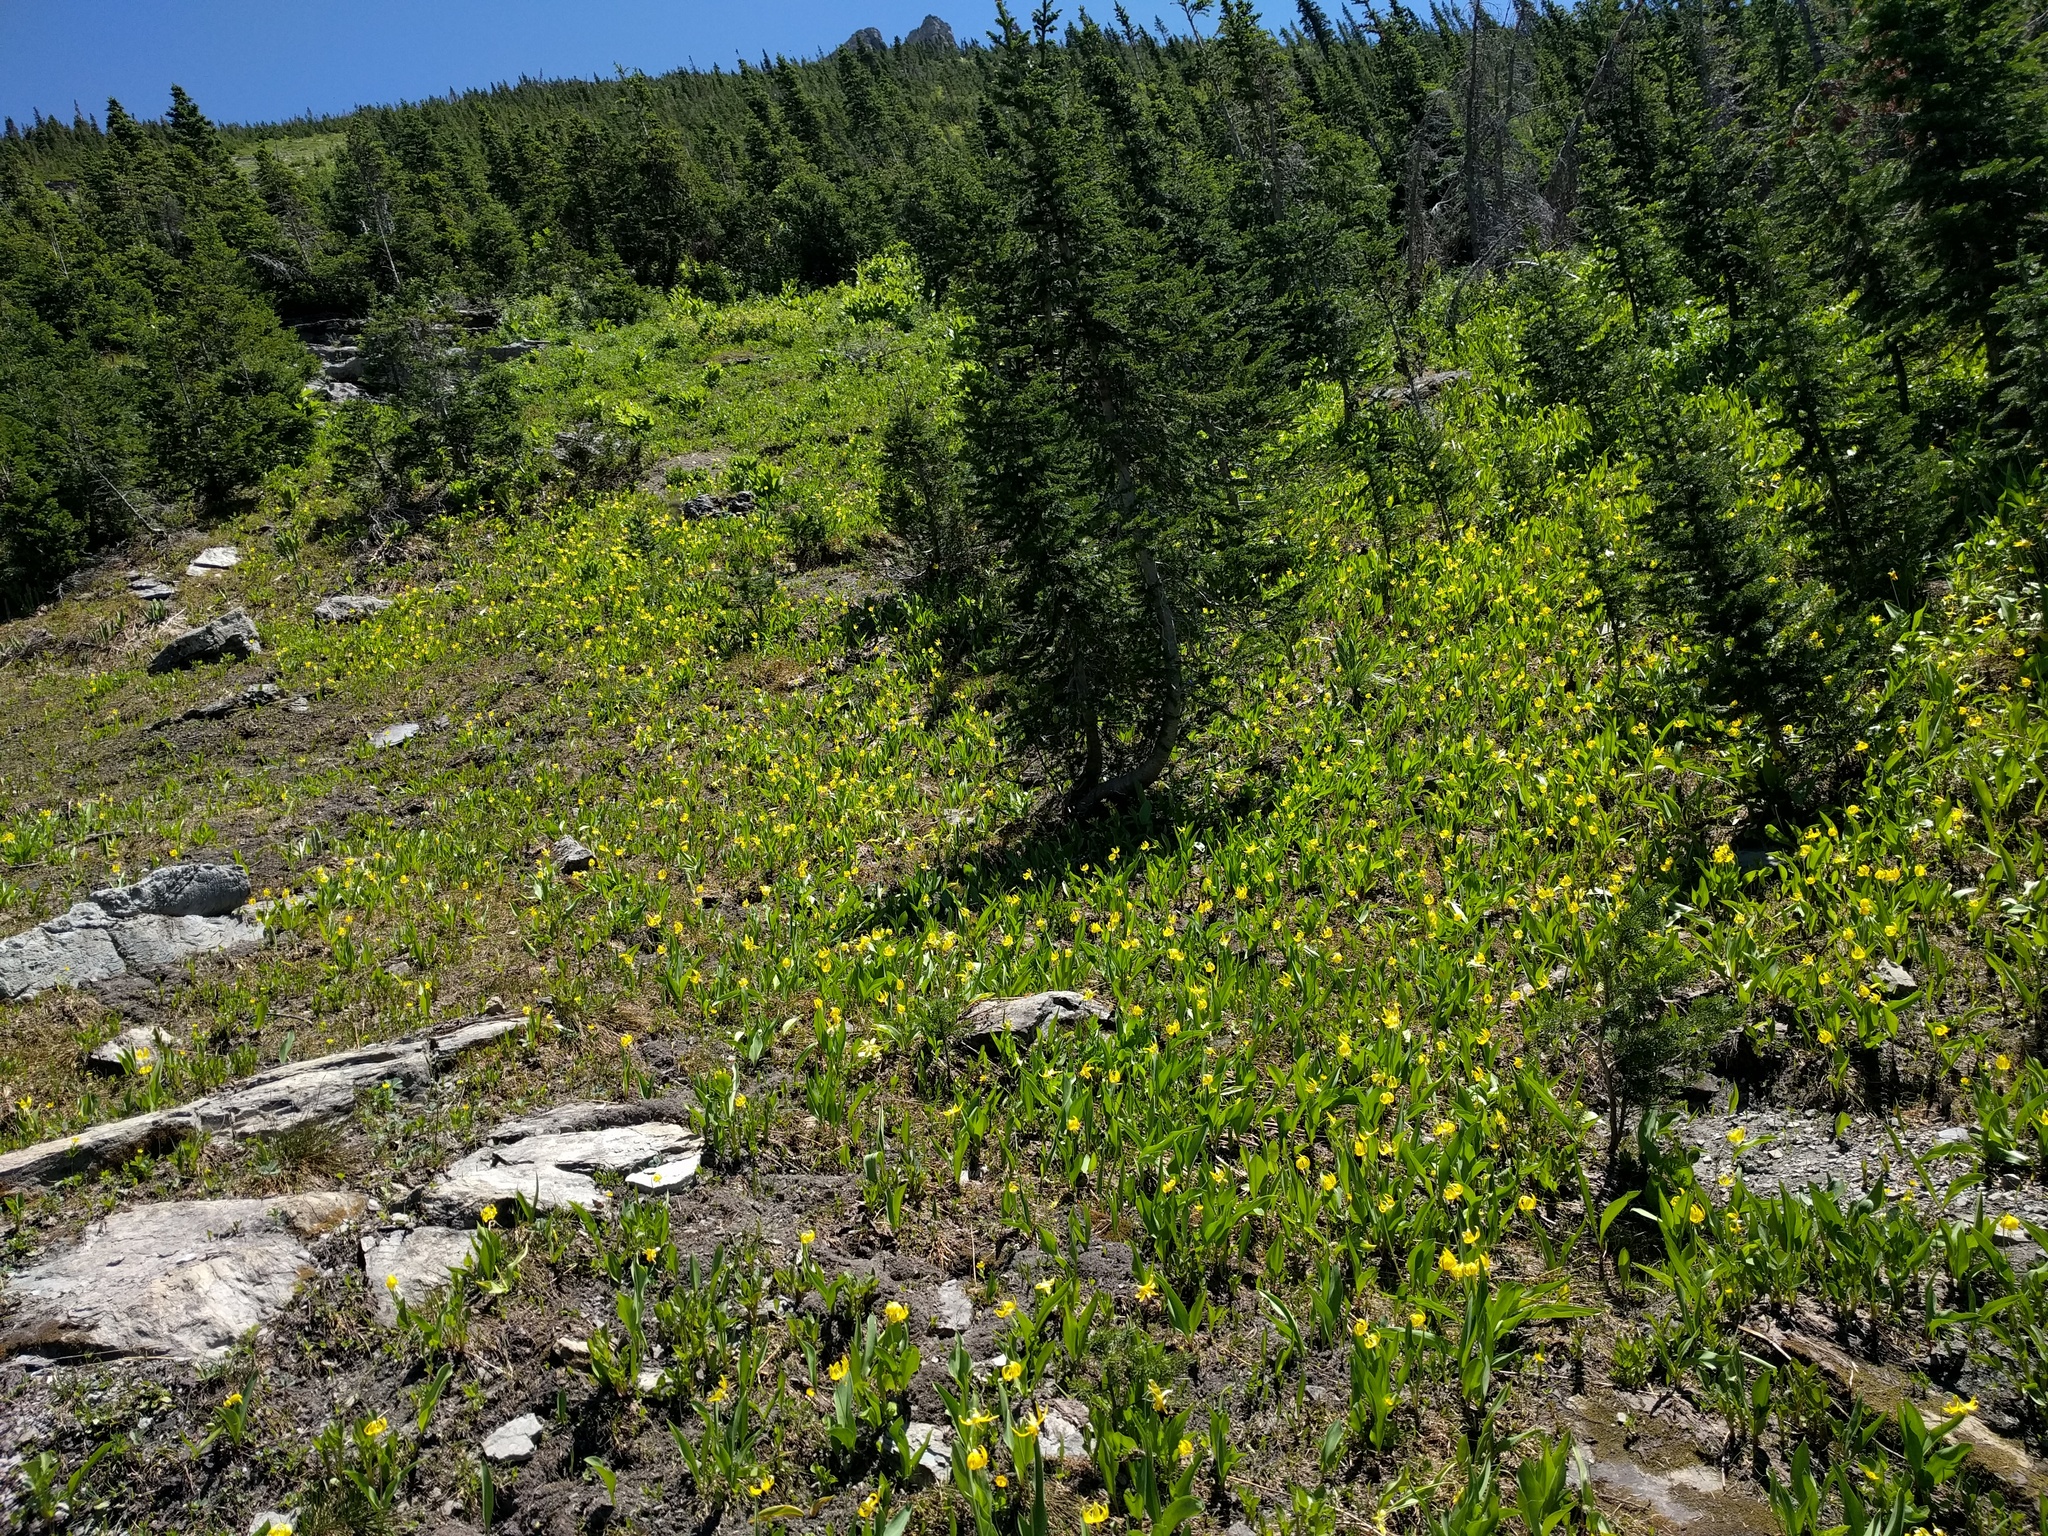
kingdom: Plantae
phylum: Tracheophyta
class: Liliopsida
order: Liliales
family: Liliaceae
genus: Erythronium
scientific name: Erythronium grandiflorum
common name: Avalanche-lily
